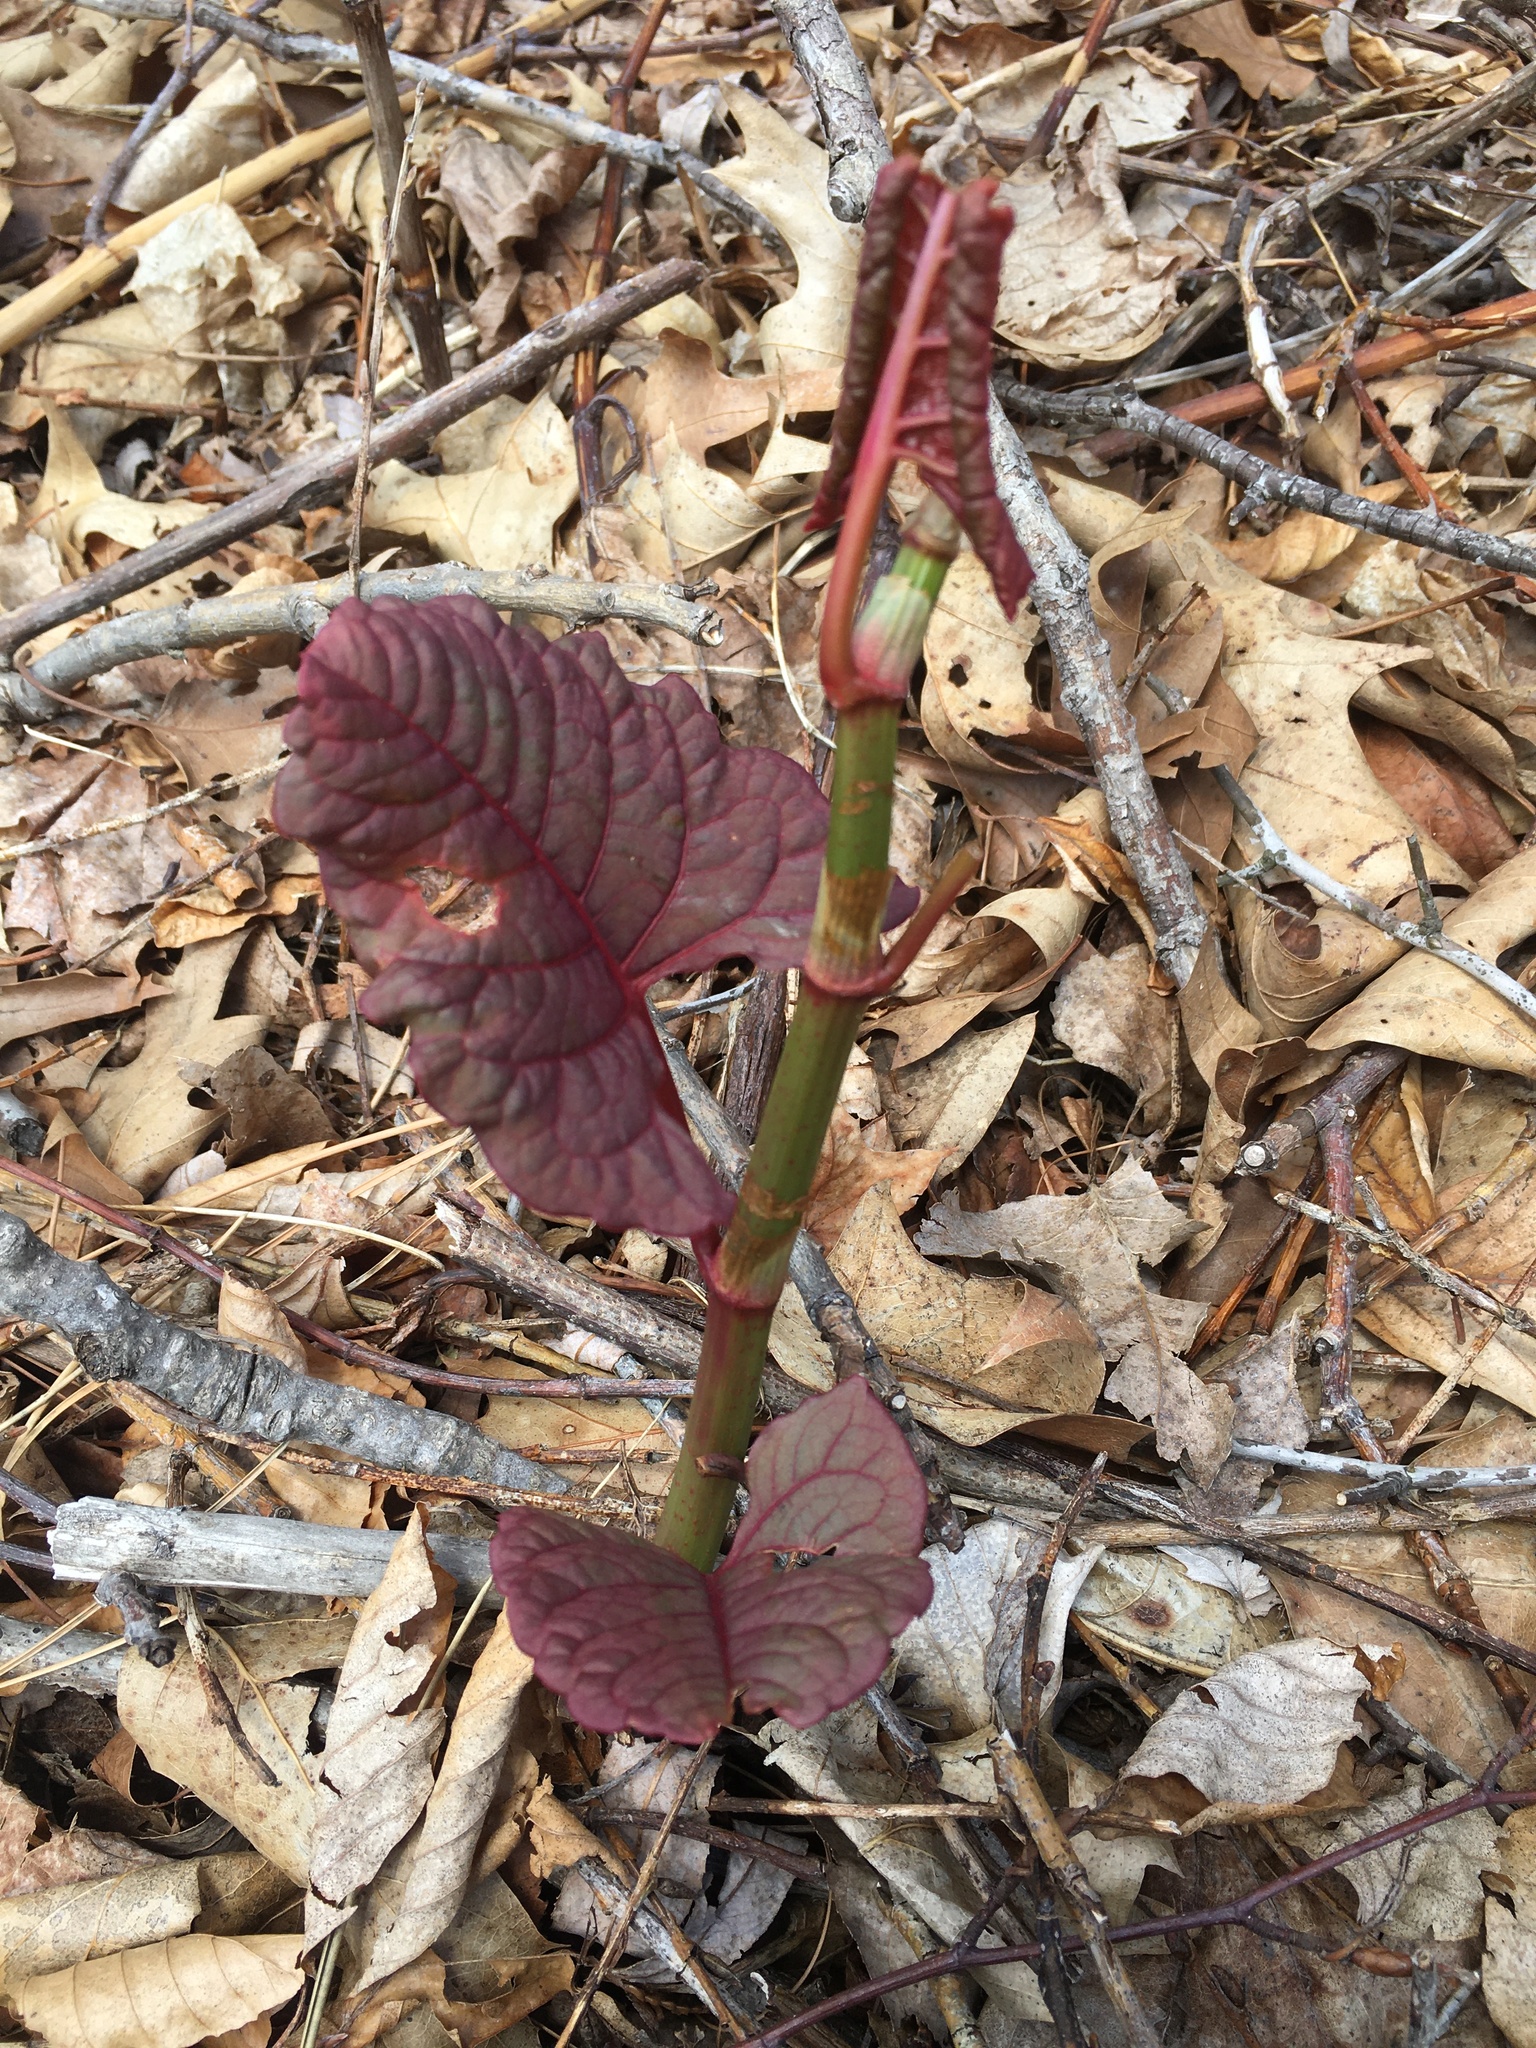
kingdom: Plantae
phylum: Tracheophyta
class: Magnoliopsida
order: Caryophyllales
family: Polygonaceae
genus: Reynoutria
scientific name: Reynoutria japonica
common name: Japanese knotweed
